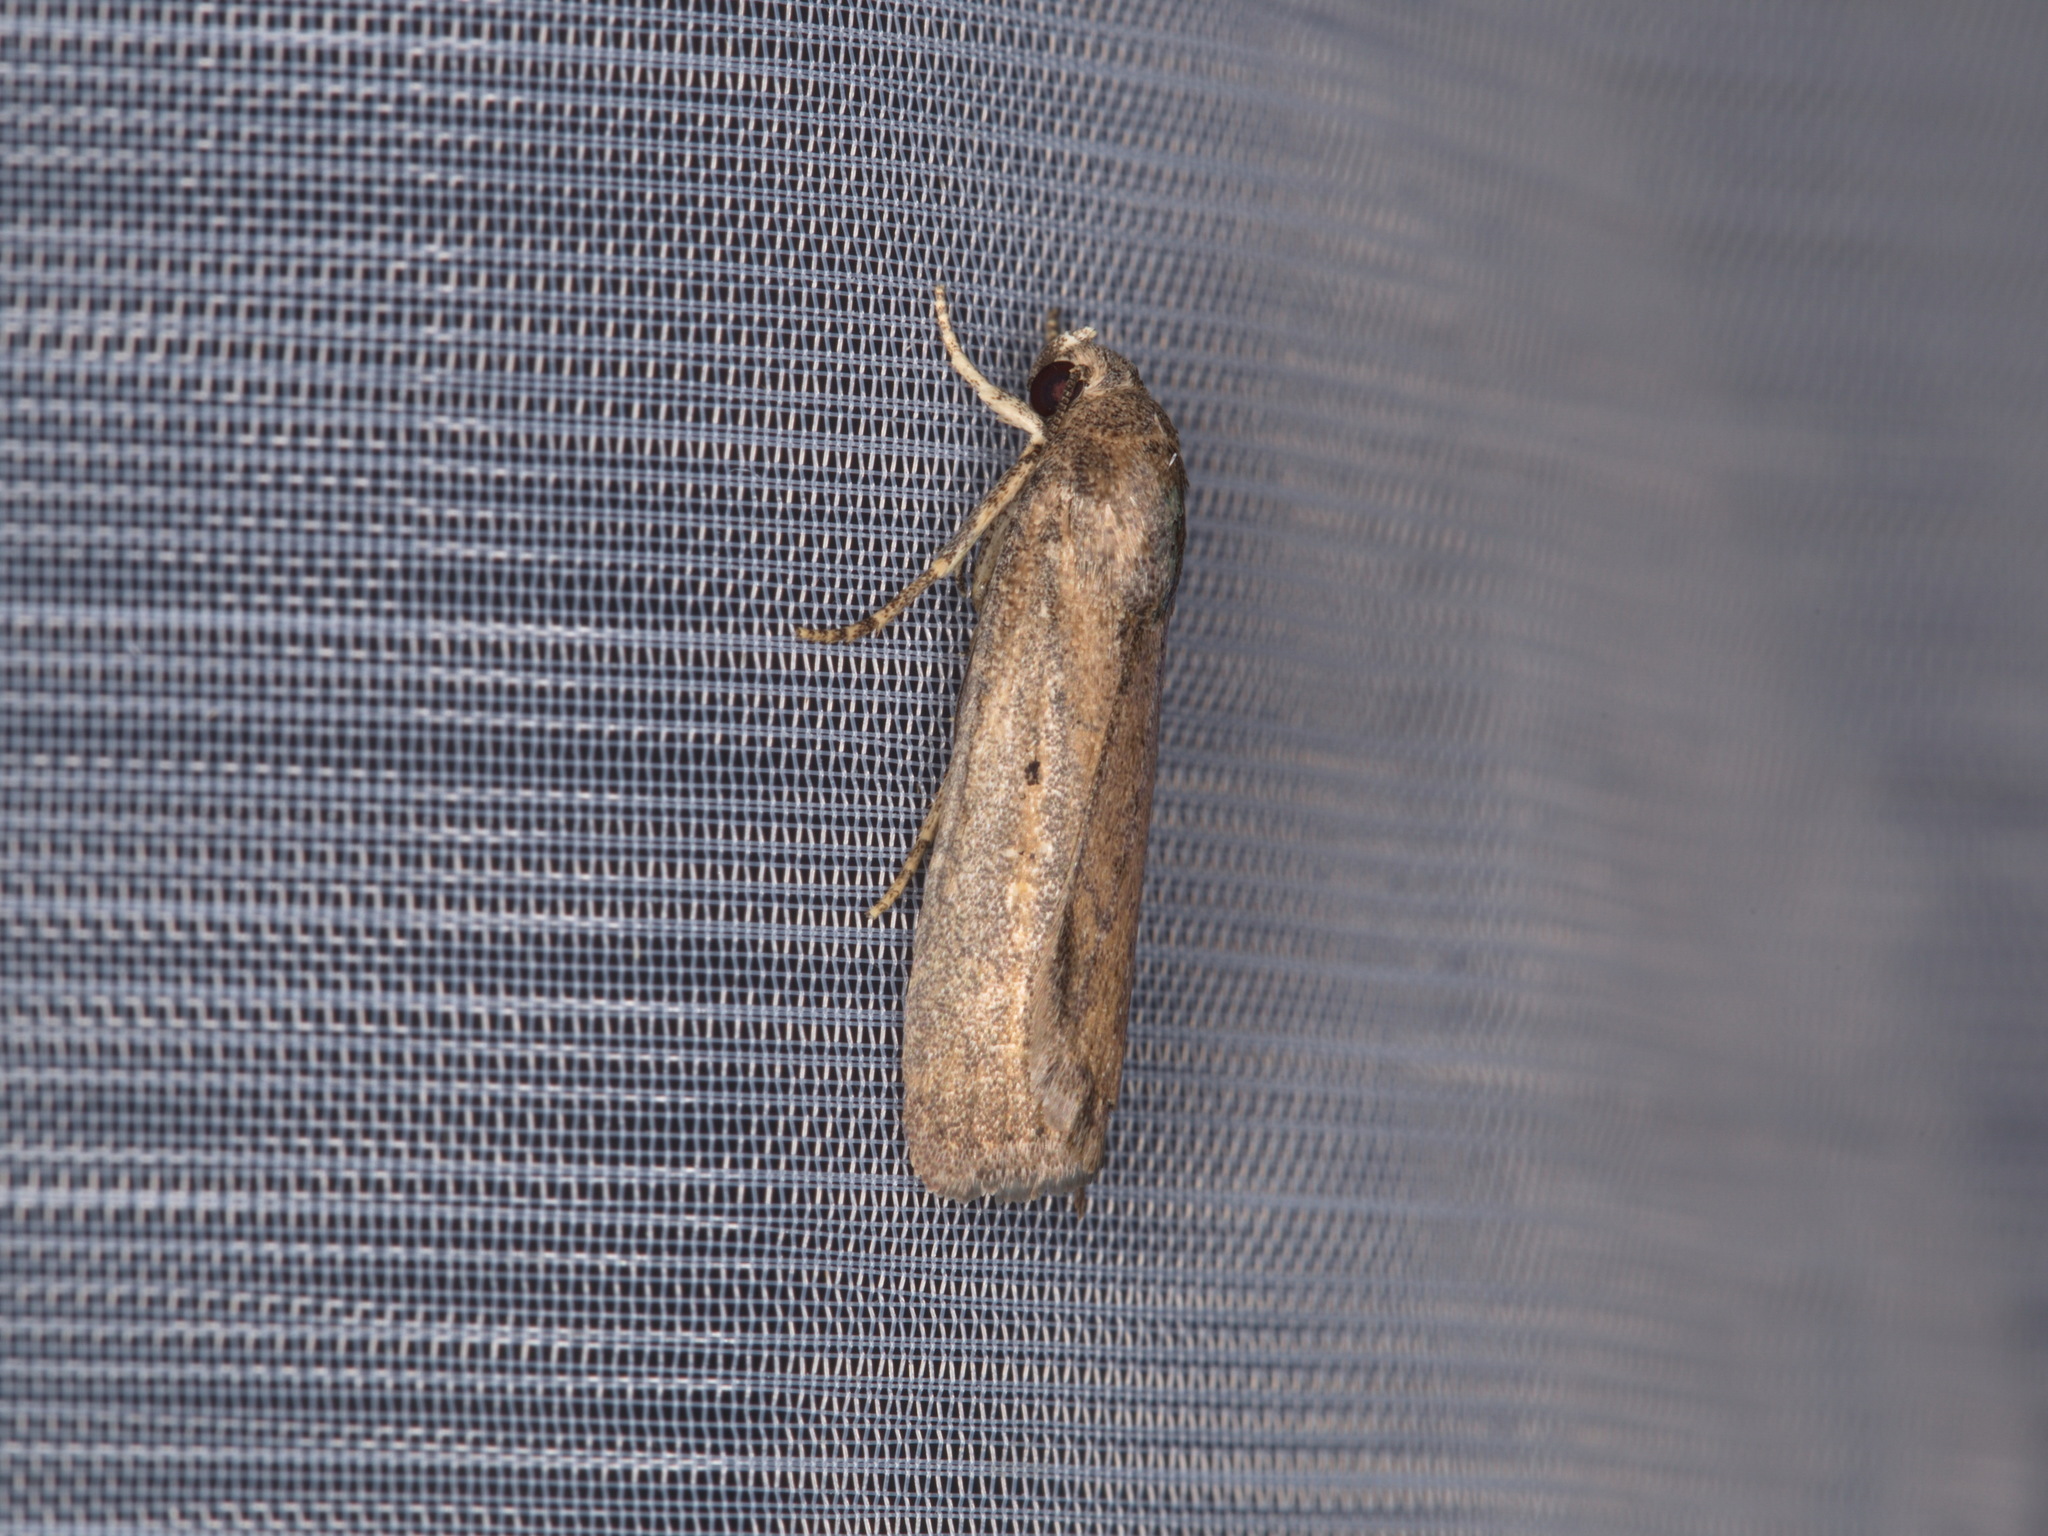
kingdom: Animalia
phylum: Arthropoda
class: Insecta
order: Lepidoptera
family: Noctuidae
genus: Athetis
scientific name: Athetis tenuis
